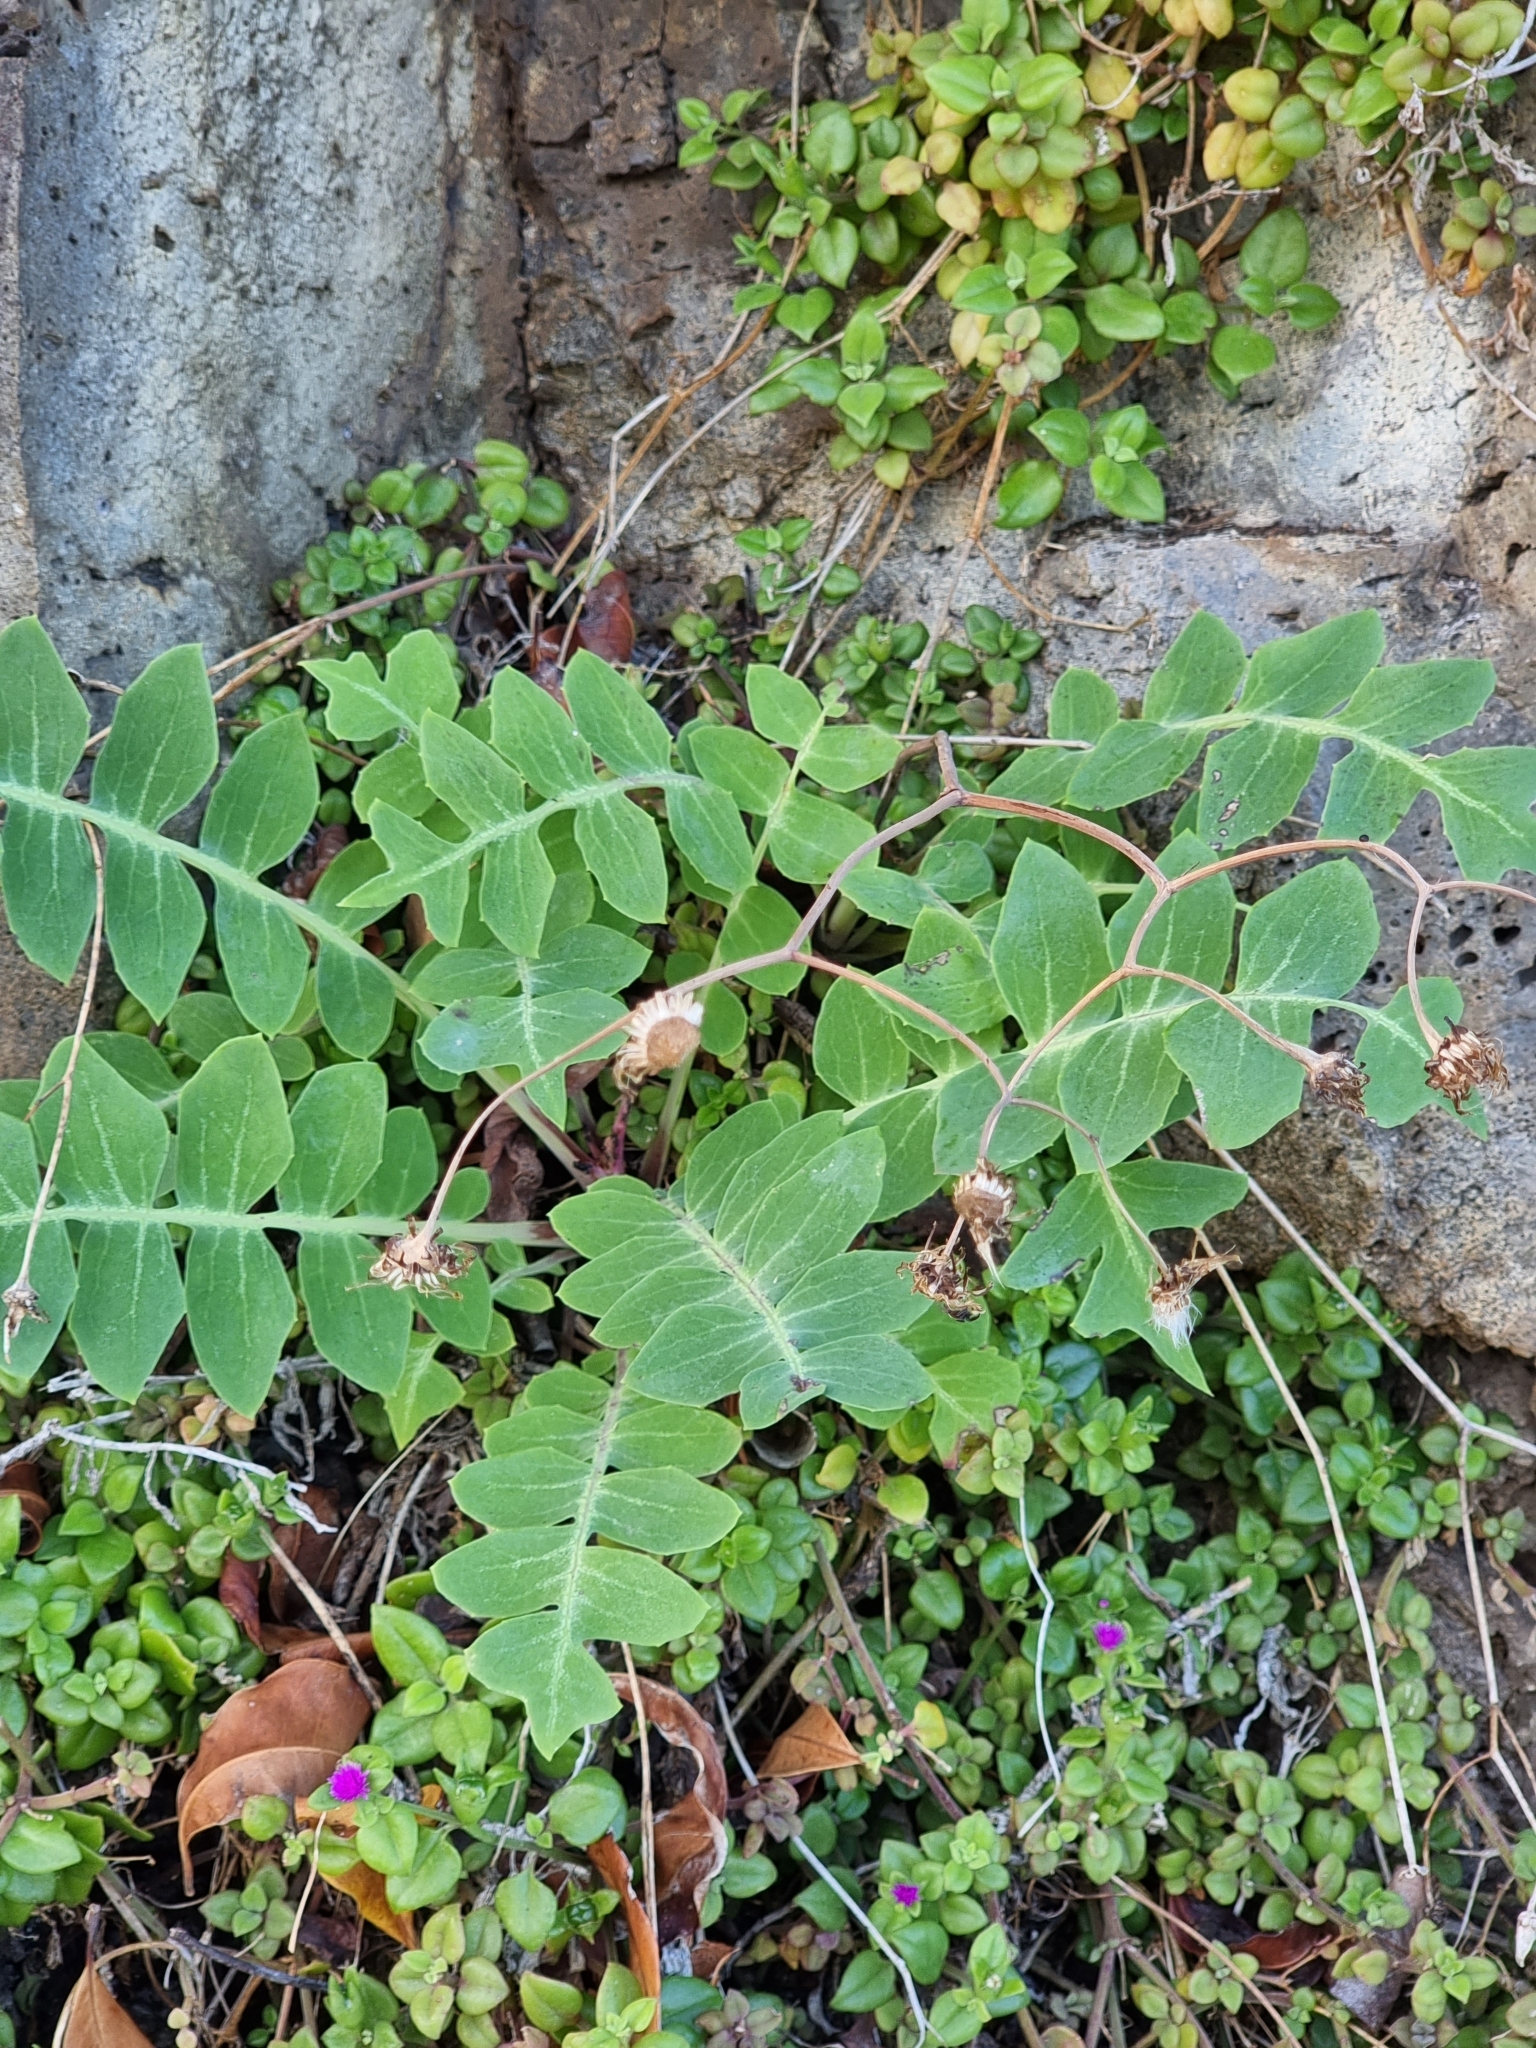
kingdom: Plantae
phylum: Tracheophyta
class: Magnoliopsida
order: Asterales
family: Asteraceae
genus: Sonchus
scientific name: Sonchus latifolius
